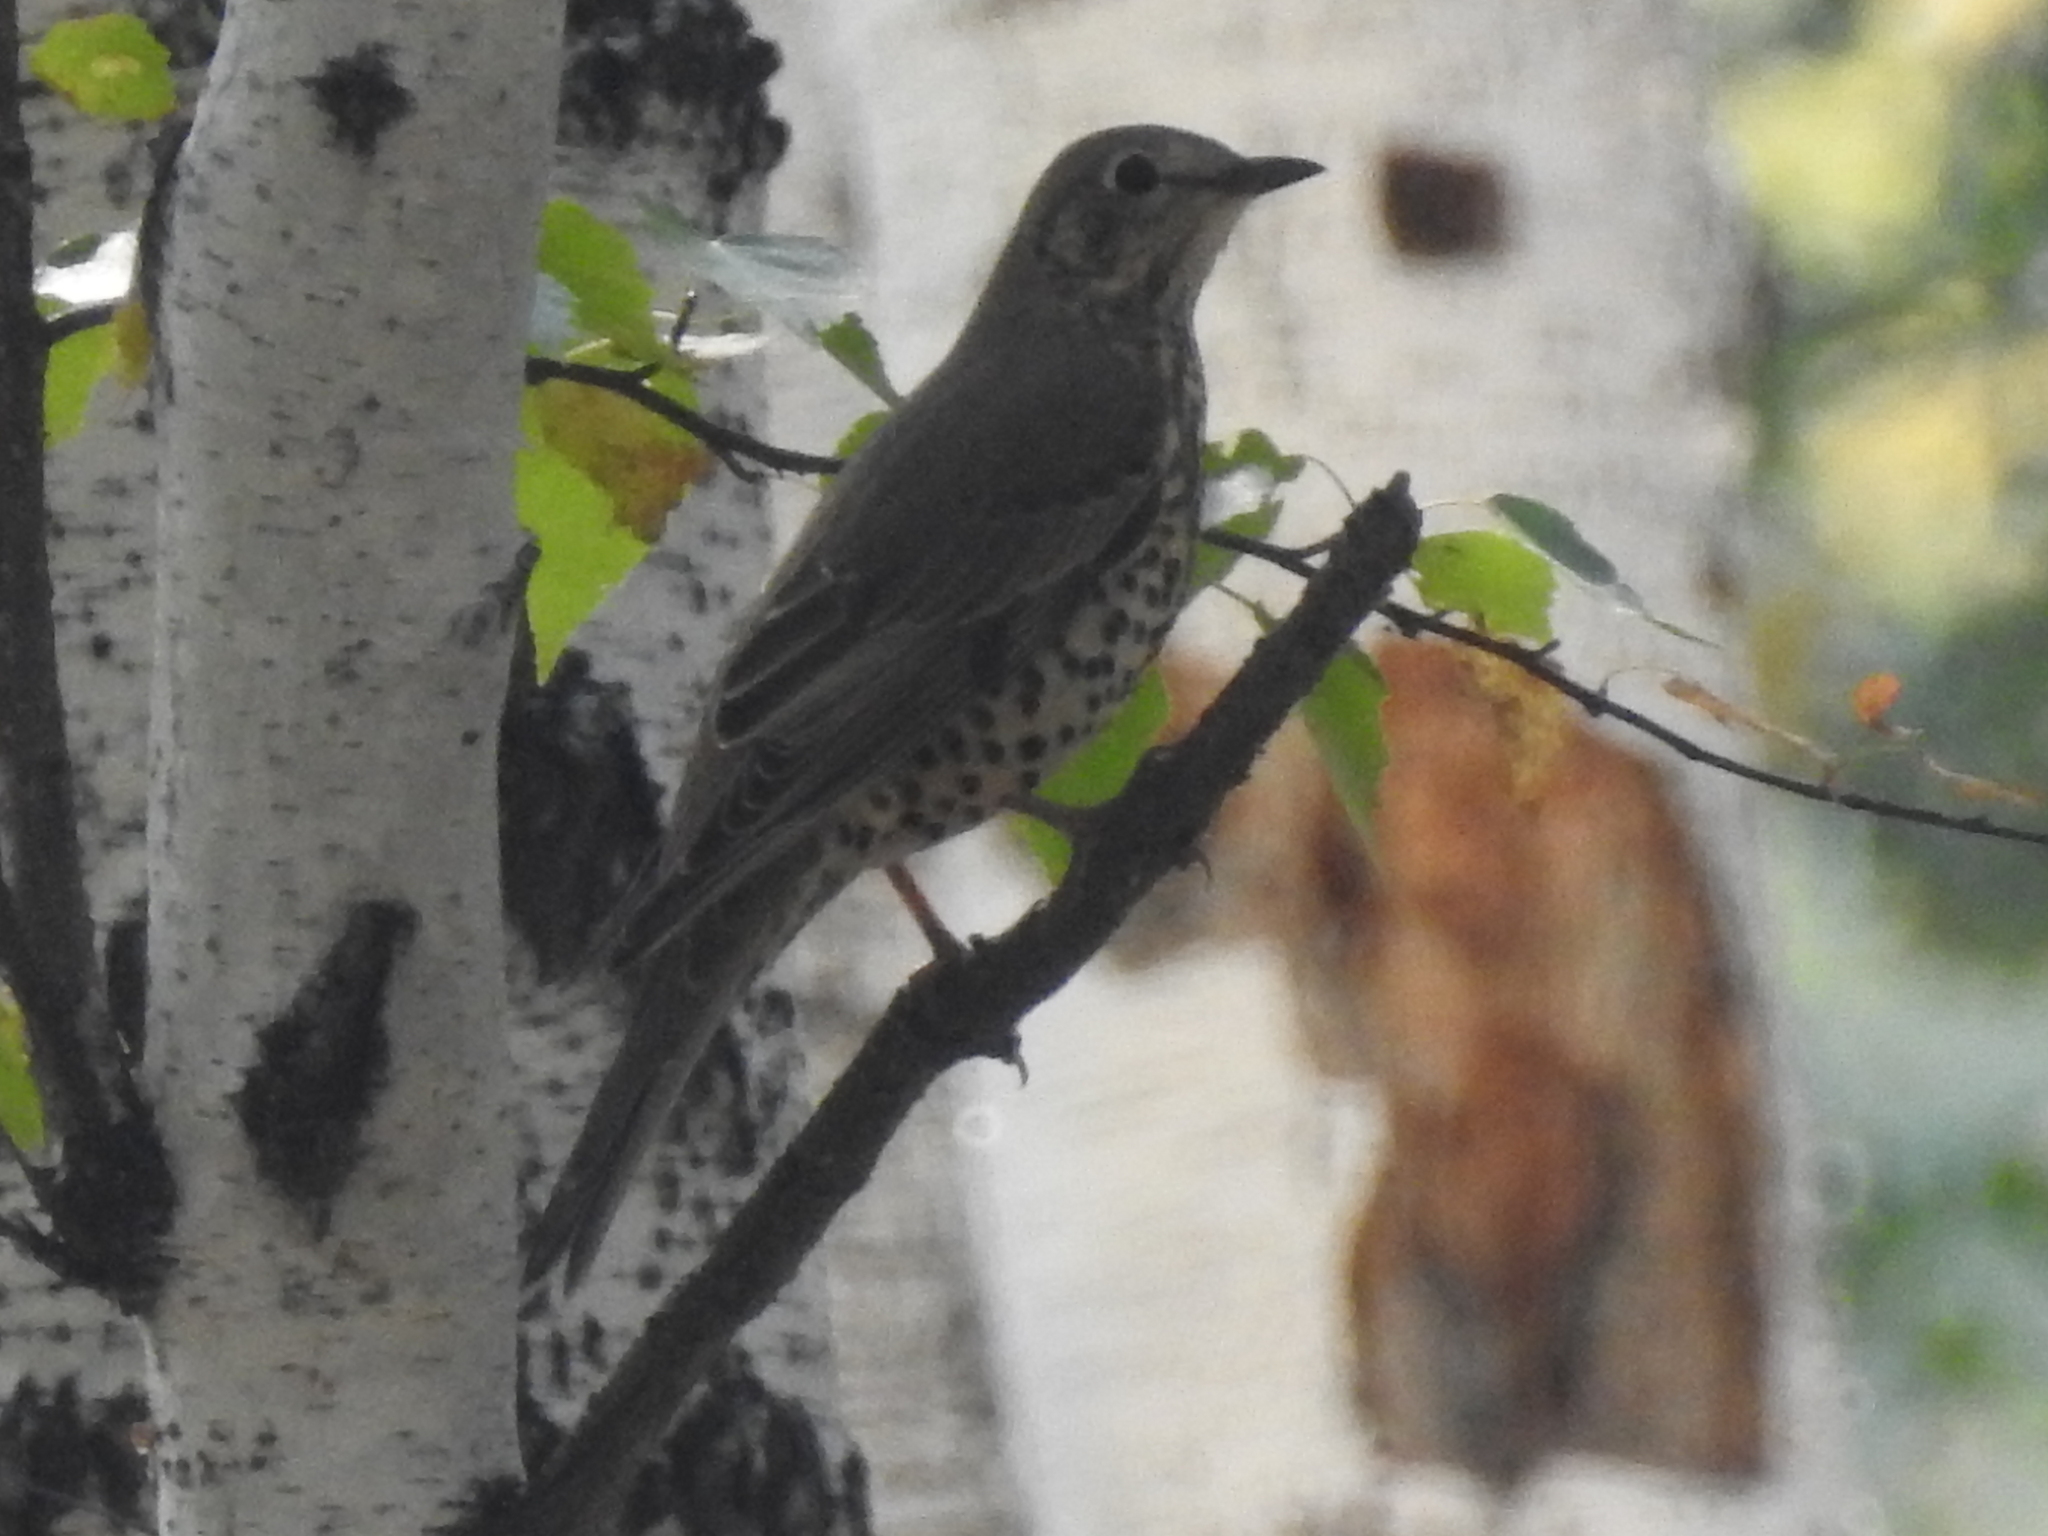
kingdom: Animalia
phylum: Chordata
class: Aves
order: Passeriformes
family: Turdidae
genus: Turdus
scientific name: Turdus viscivorus
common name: Mistle thrush
